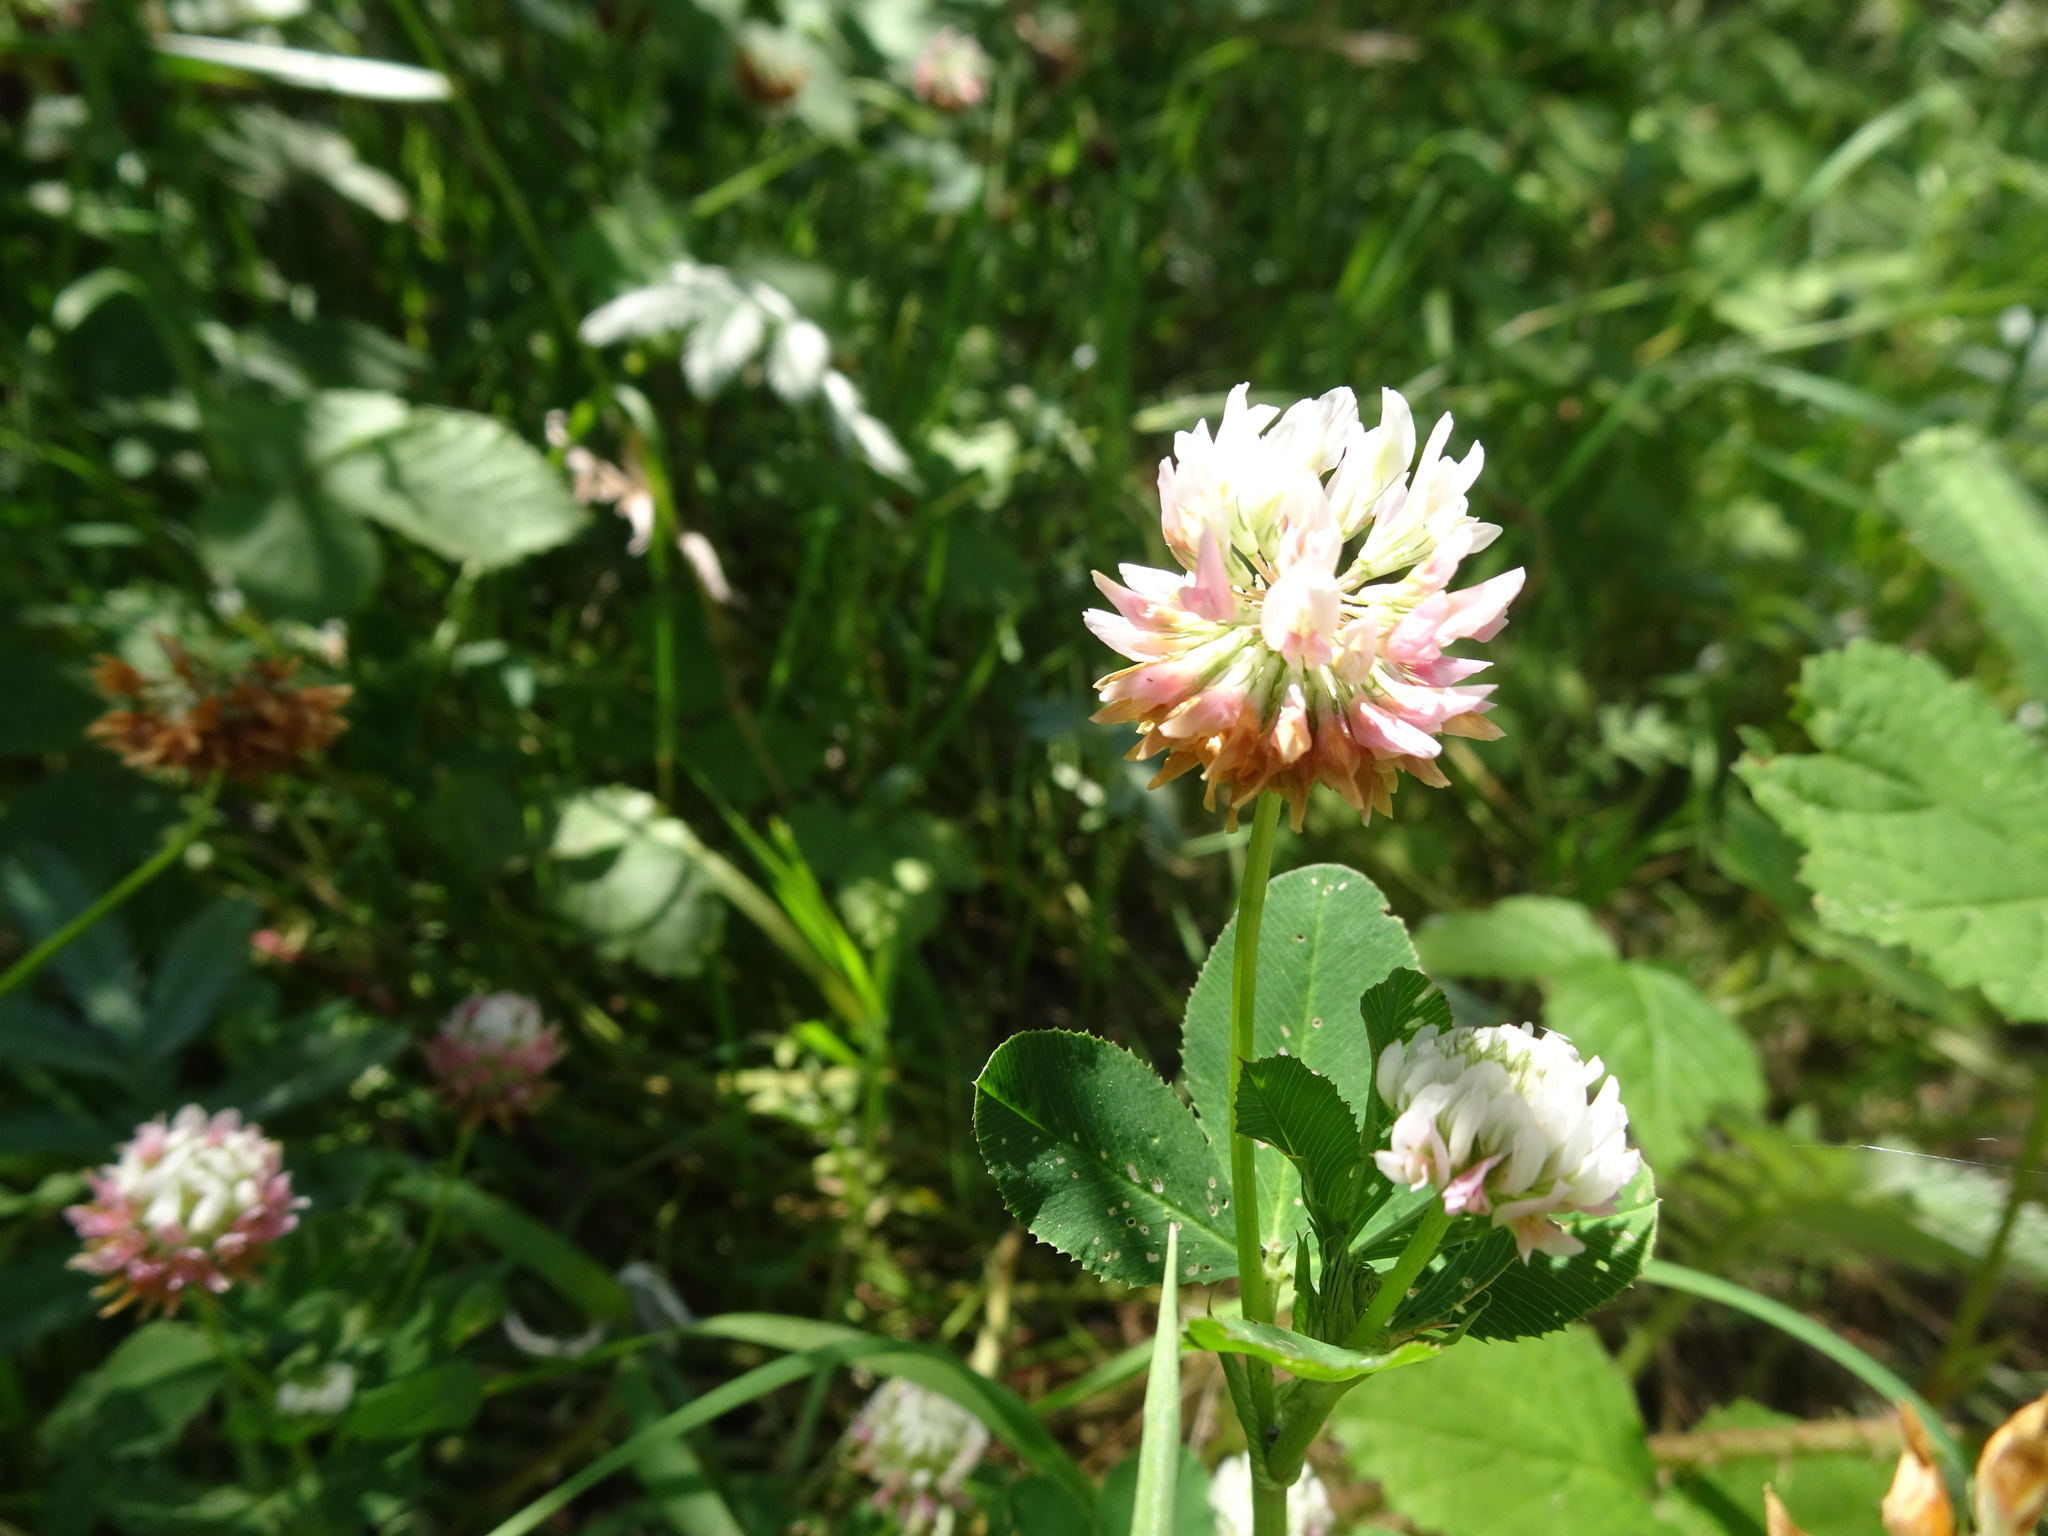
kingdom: Plantae
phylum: Tracheophyta
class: Magnoliopsida
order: Fabales
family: Fabaceae
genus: Trifolium
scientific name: Trifolium hybridum
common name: Alsike clover
